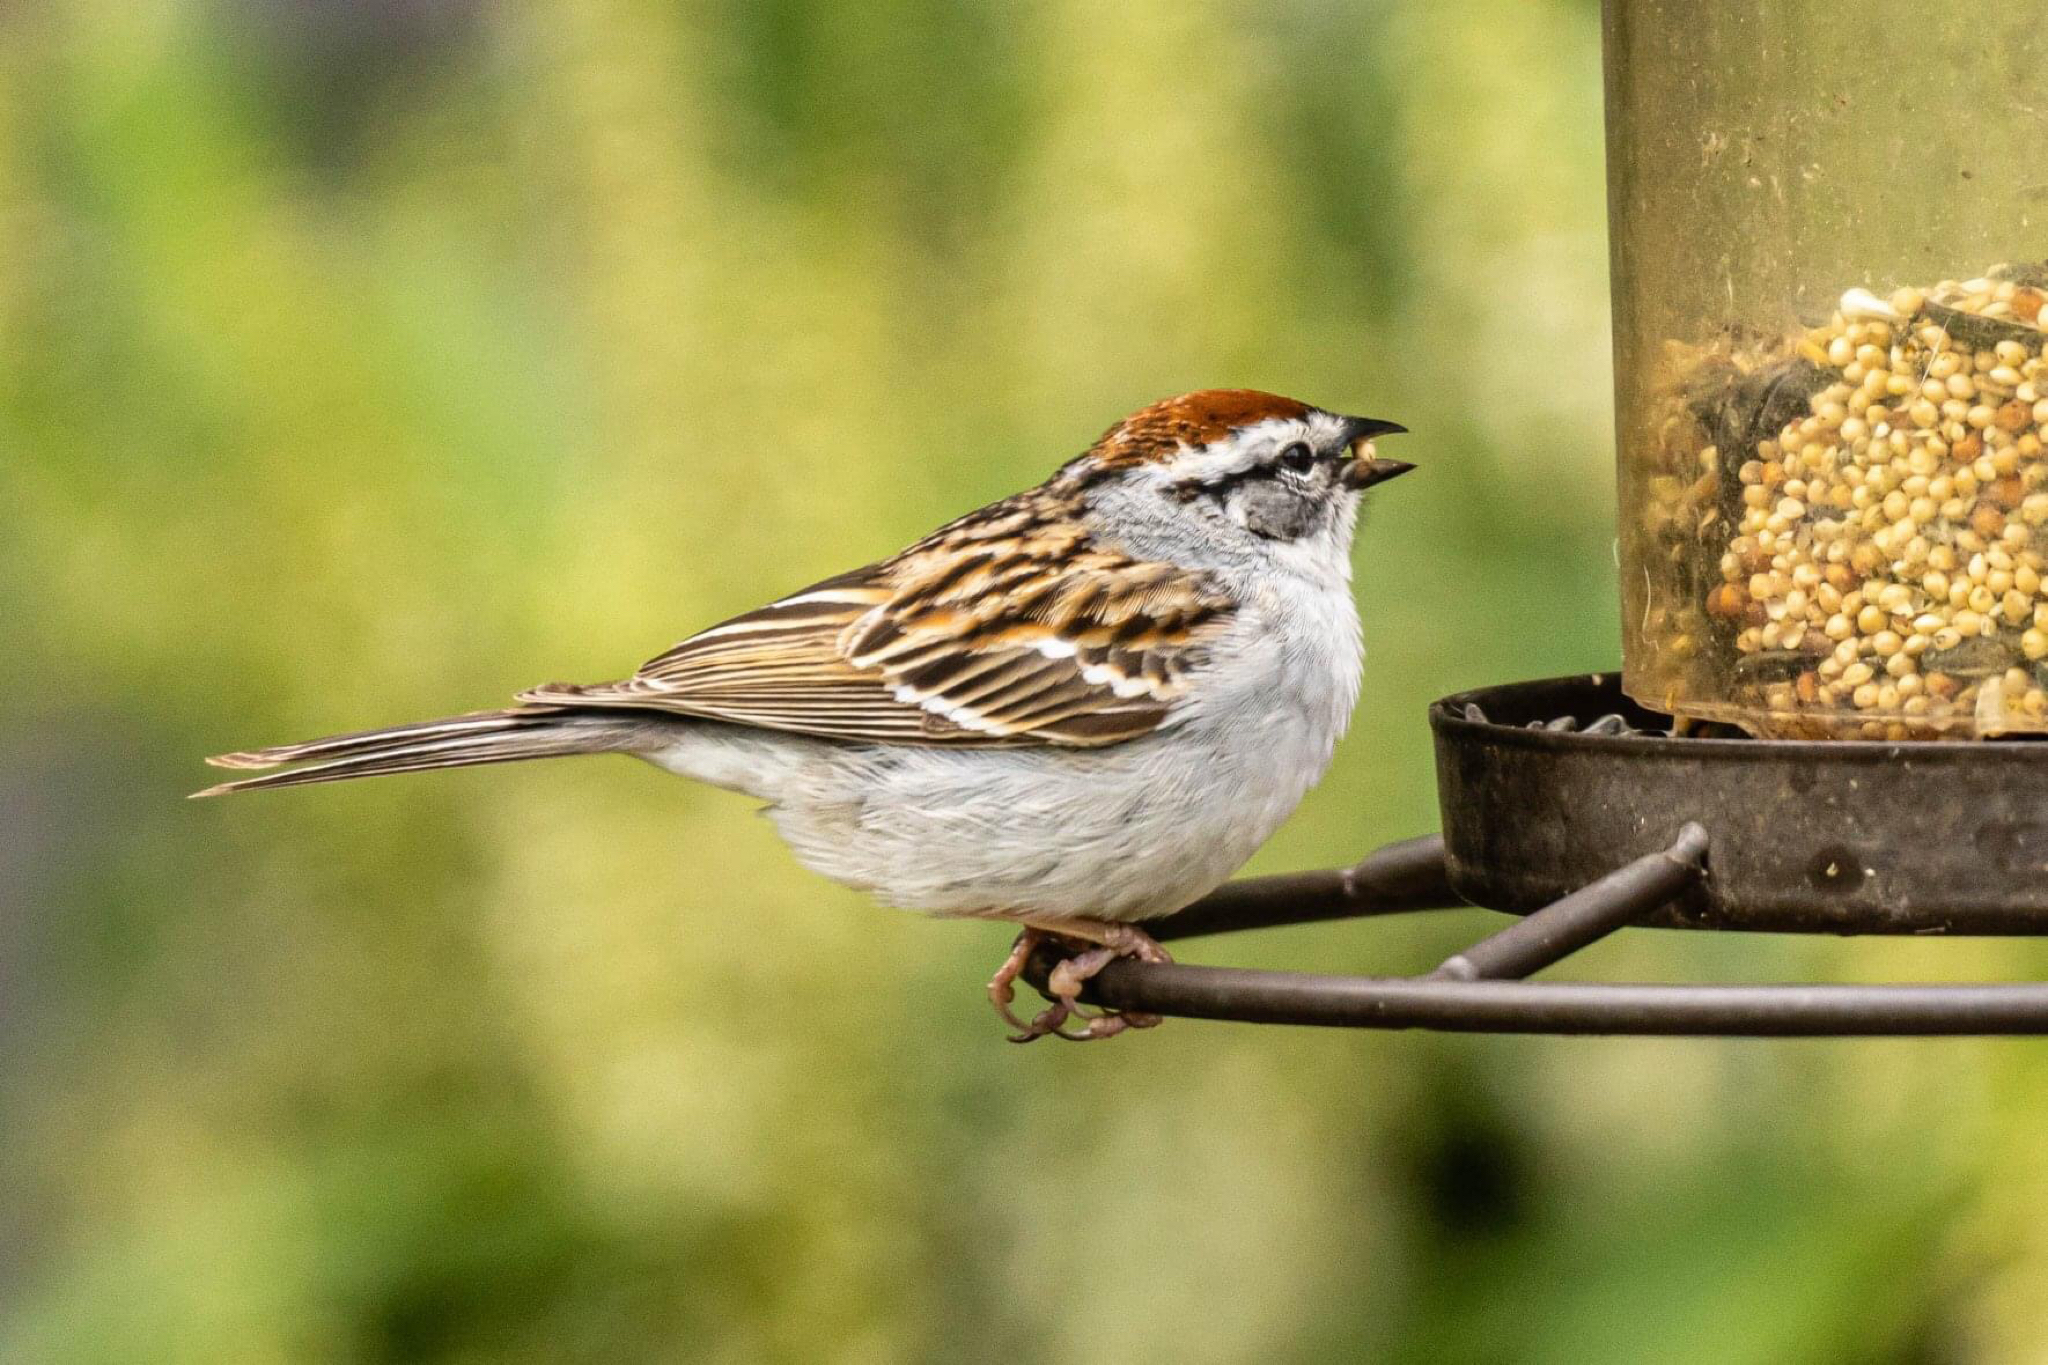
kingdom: Animalia
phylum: Chordata
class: Aves
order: Passeriformes
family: Passerellidae
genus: Spizella
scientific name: Spizella passerina
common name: Chipping sparrow
